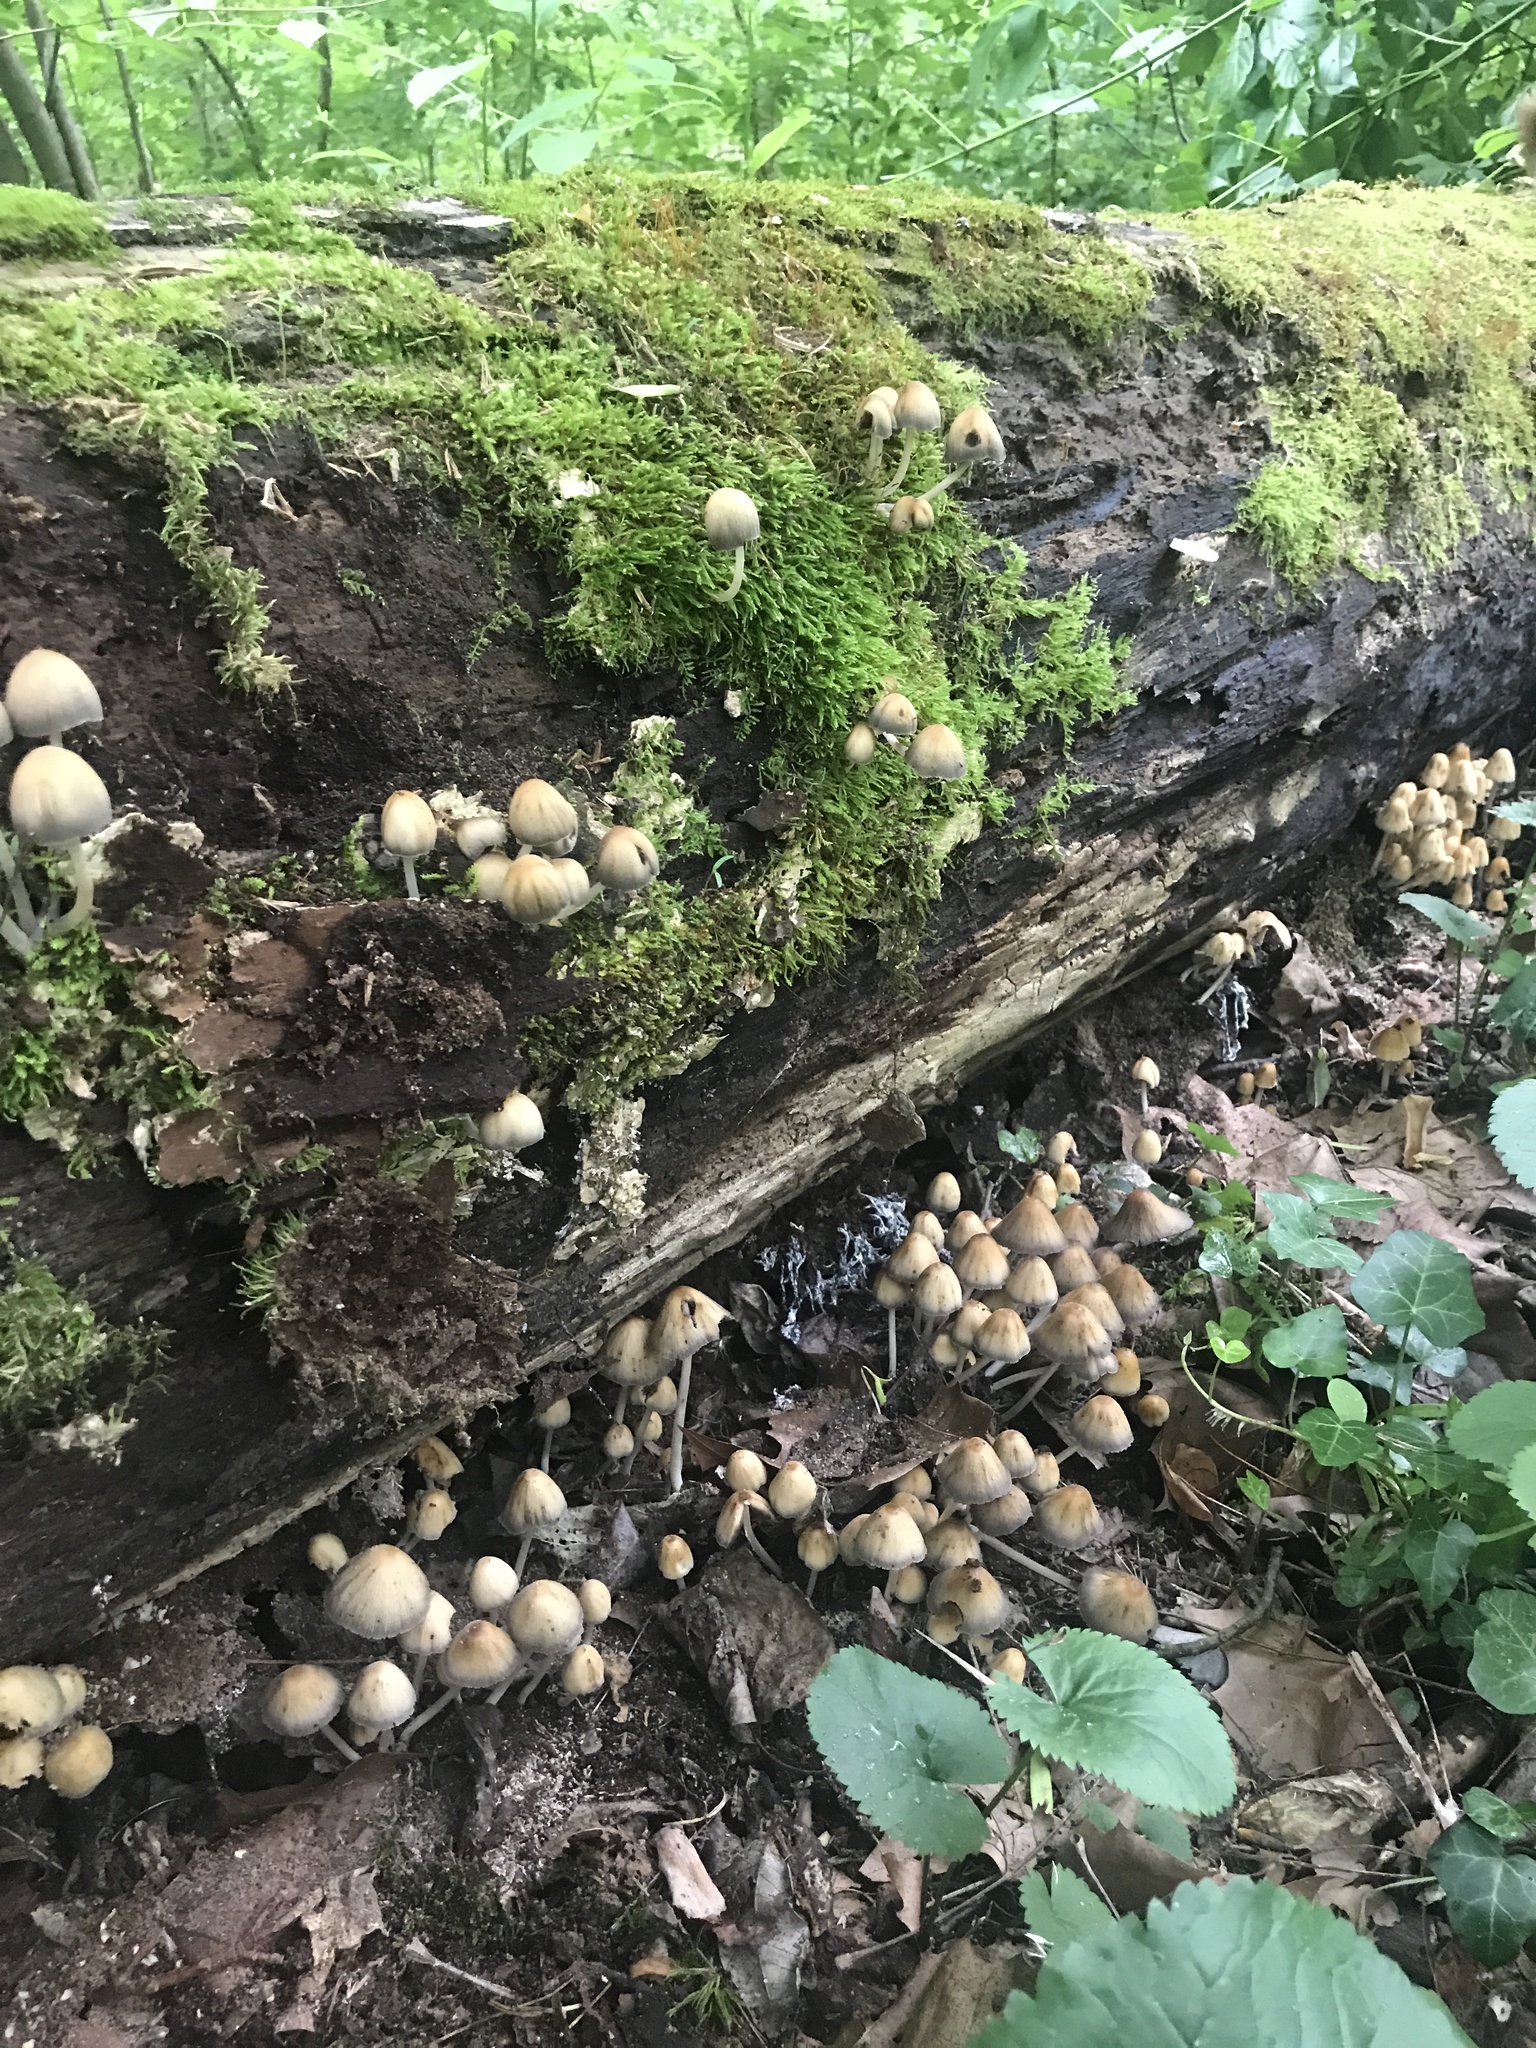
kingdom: Fungi
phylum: Basidiomycota
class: Agaricomycetes
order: Agaricales
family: Psathyrellaceae
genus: Coprinellus
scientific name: Coprinellus micaceus
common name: Glistening ink-cap
